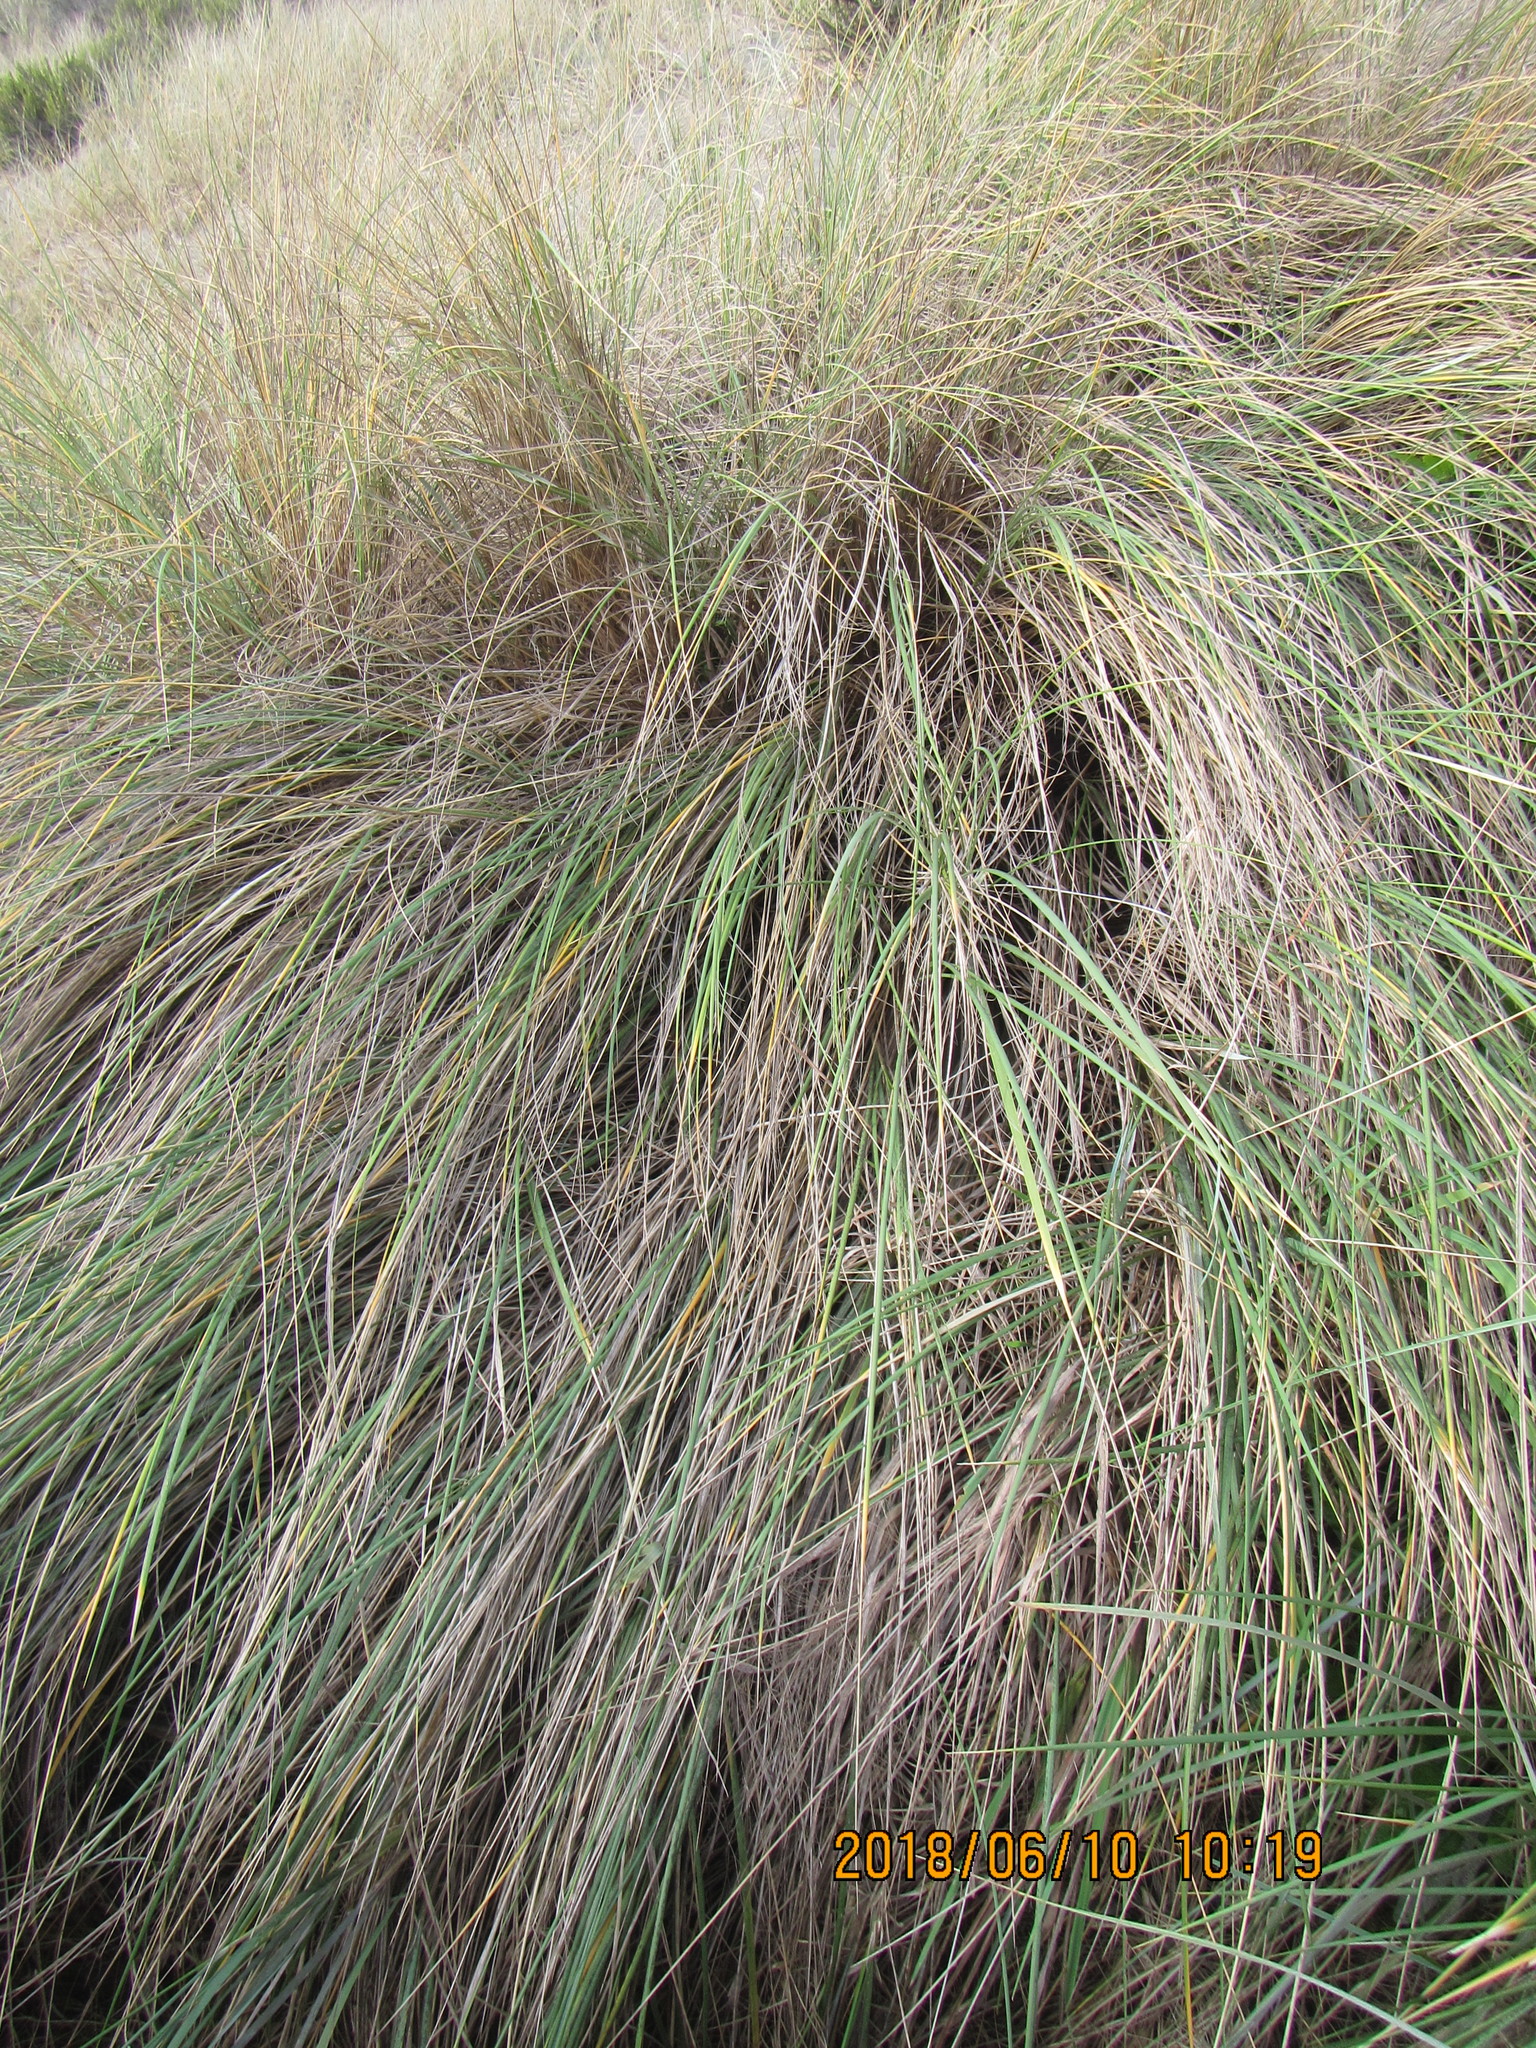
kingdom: Plantae
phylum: Tracheophyta
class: Liliopsida
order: Poales
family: Poaceae
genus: Calamagrostis
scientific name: Calamagrostis arenaria
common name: European beachgrass
